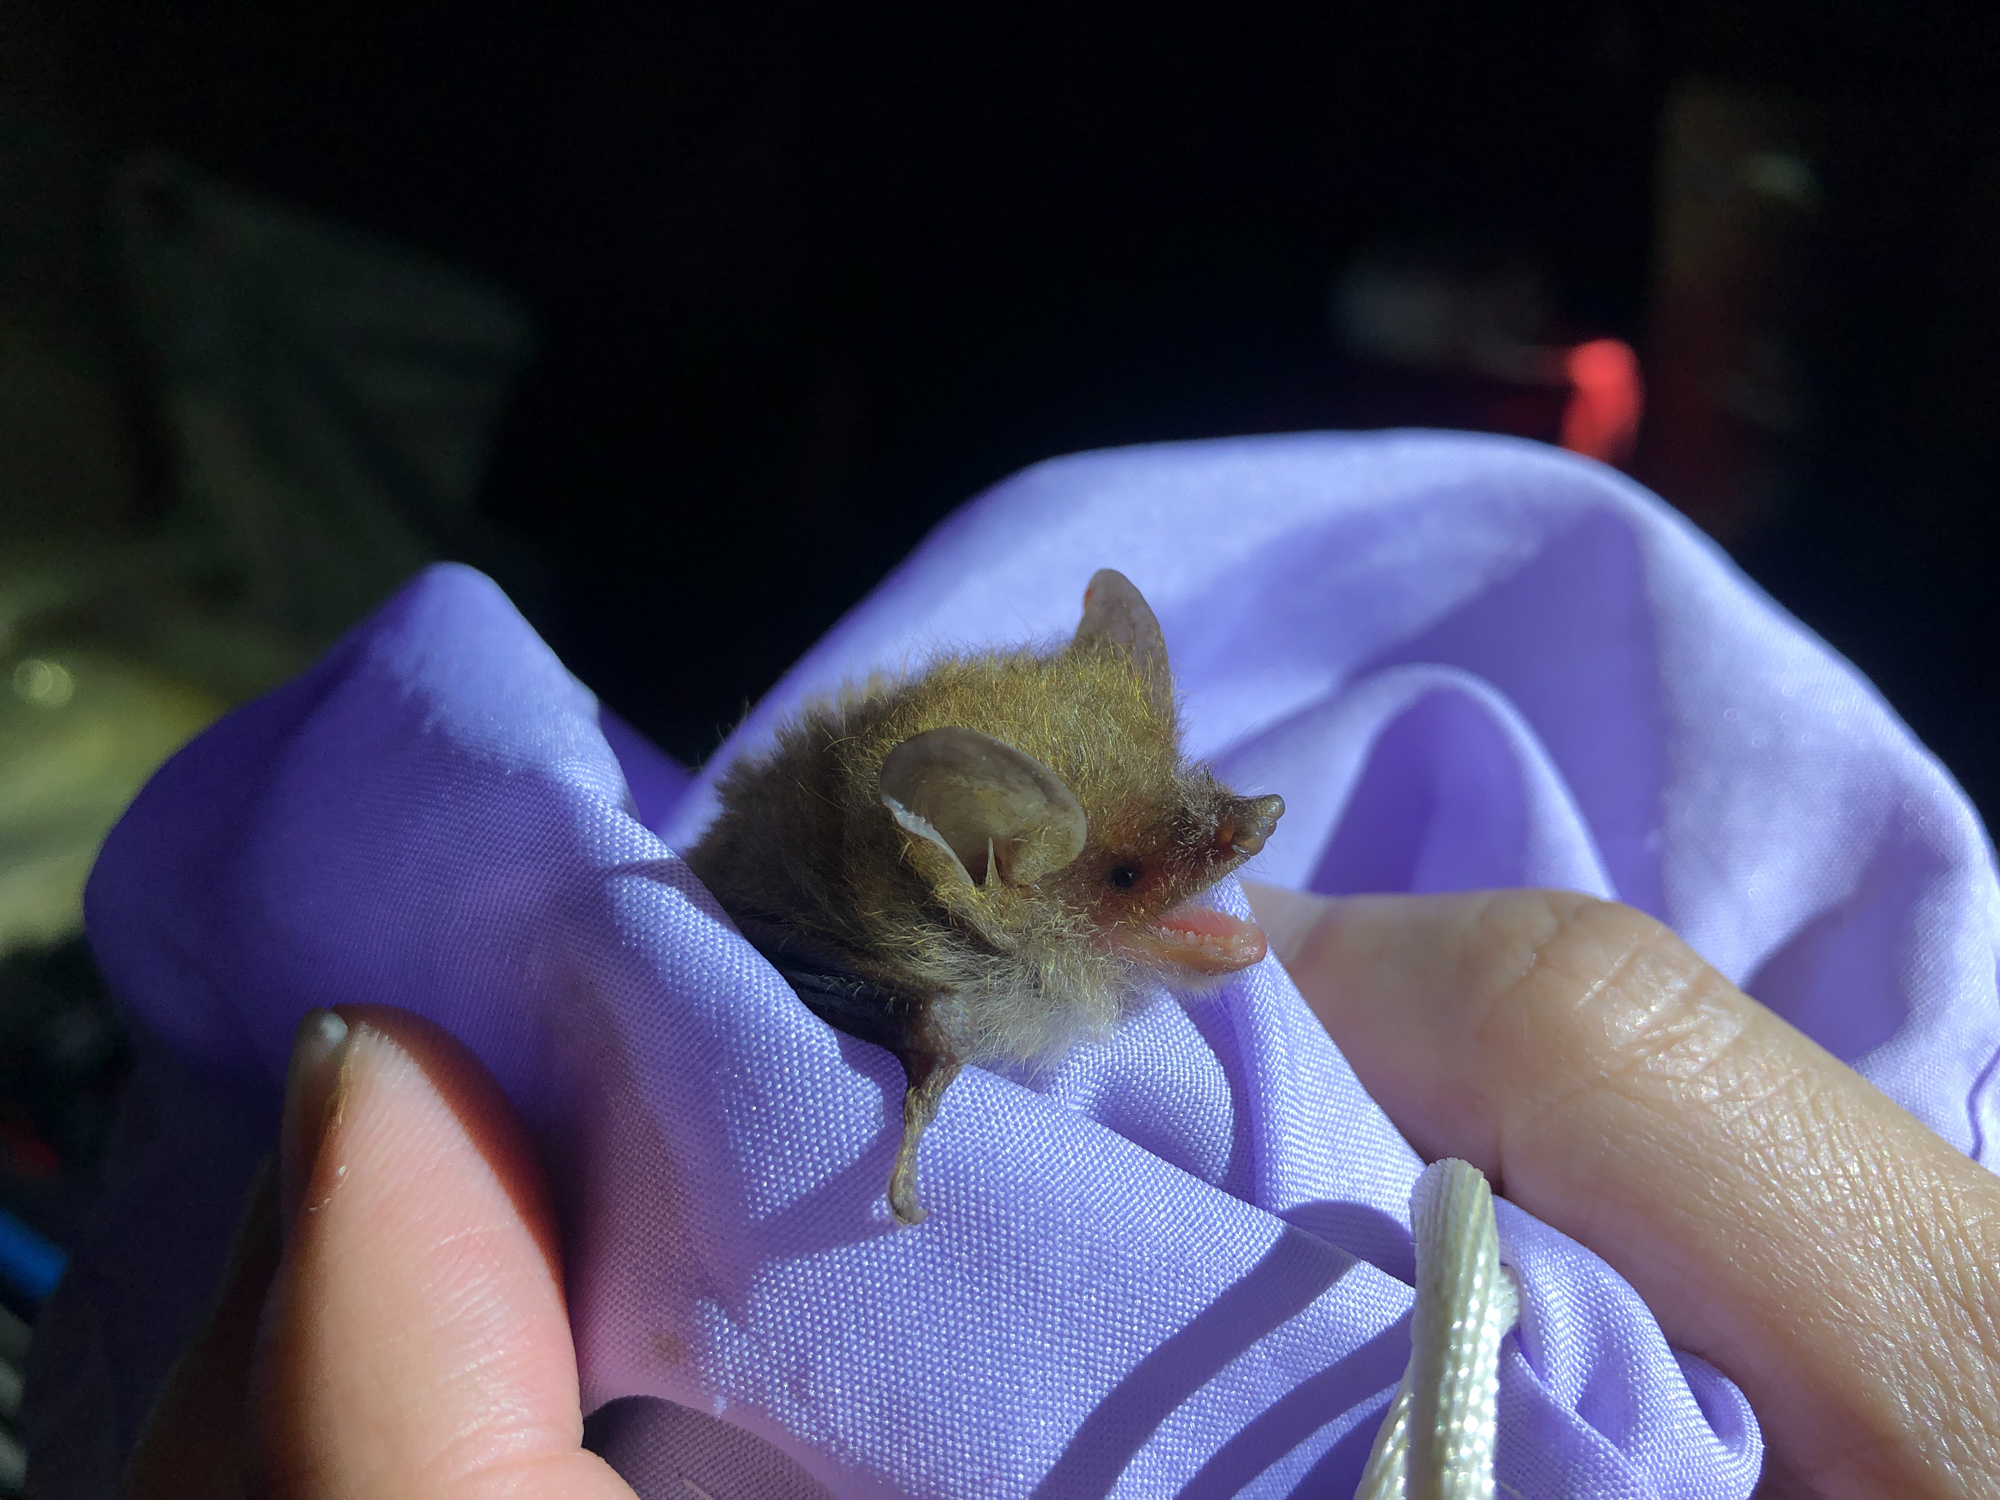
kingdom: Animalia
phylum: Chordata
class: Mammalia
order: Chiroptera
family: Vespertilionidae
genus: Murina
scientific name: Murina recondita
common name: Faint-colored tube-nosed bat
